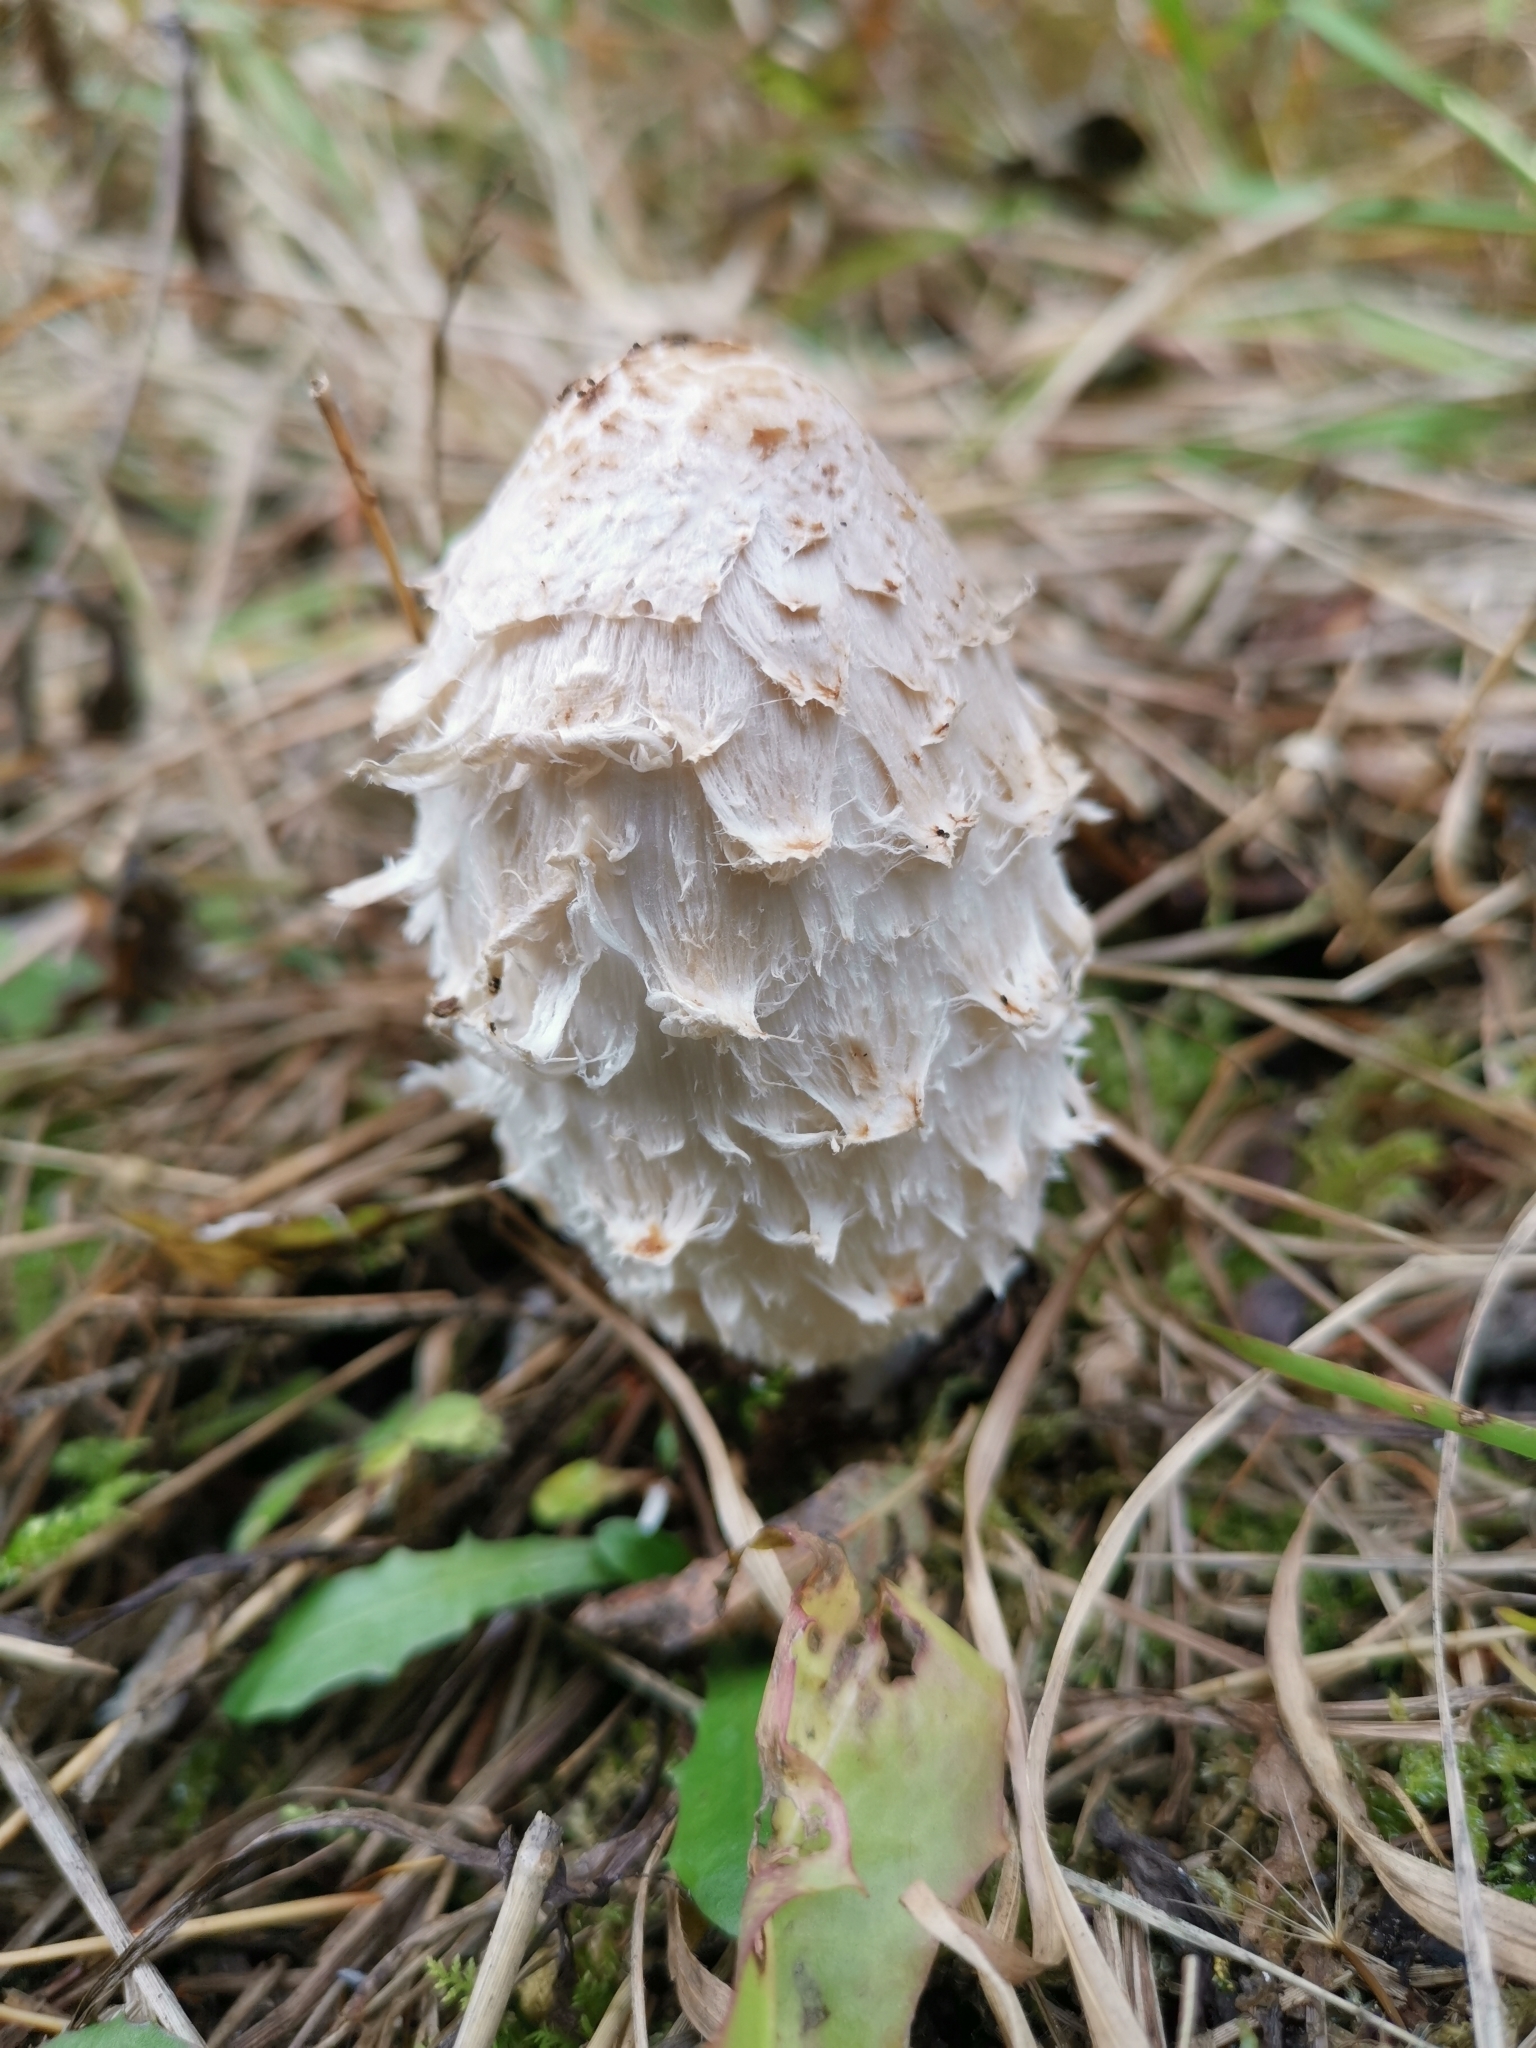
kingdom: Fungi
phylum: Basidiomycota
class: Agaricomycetes
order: Agaricales
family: Agaricaceae
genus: Coprinus
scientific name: Coprinus comatus
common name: Lawyer's wig
